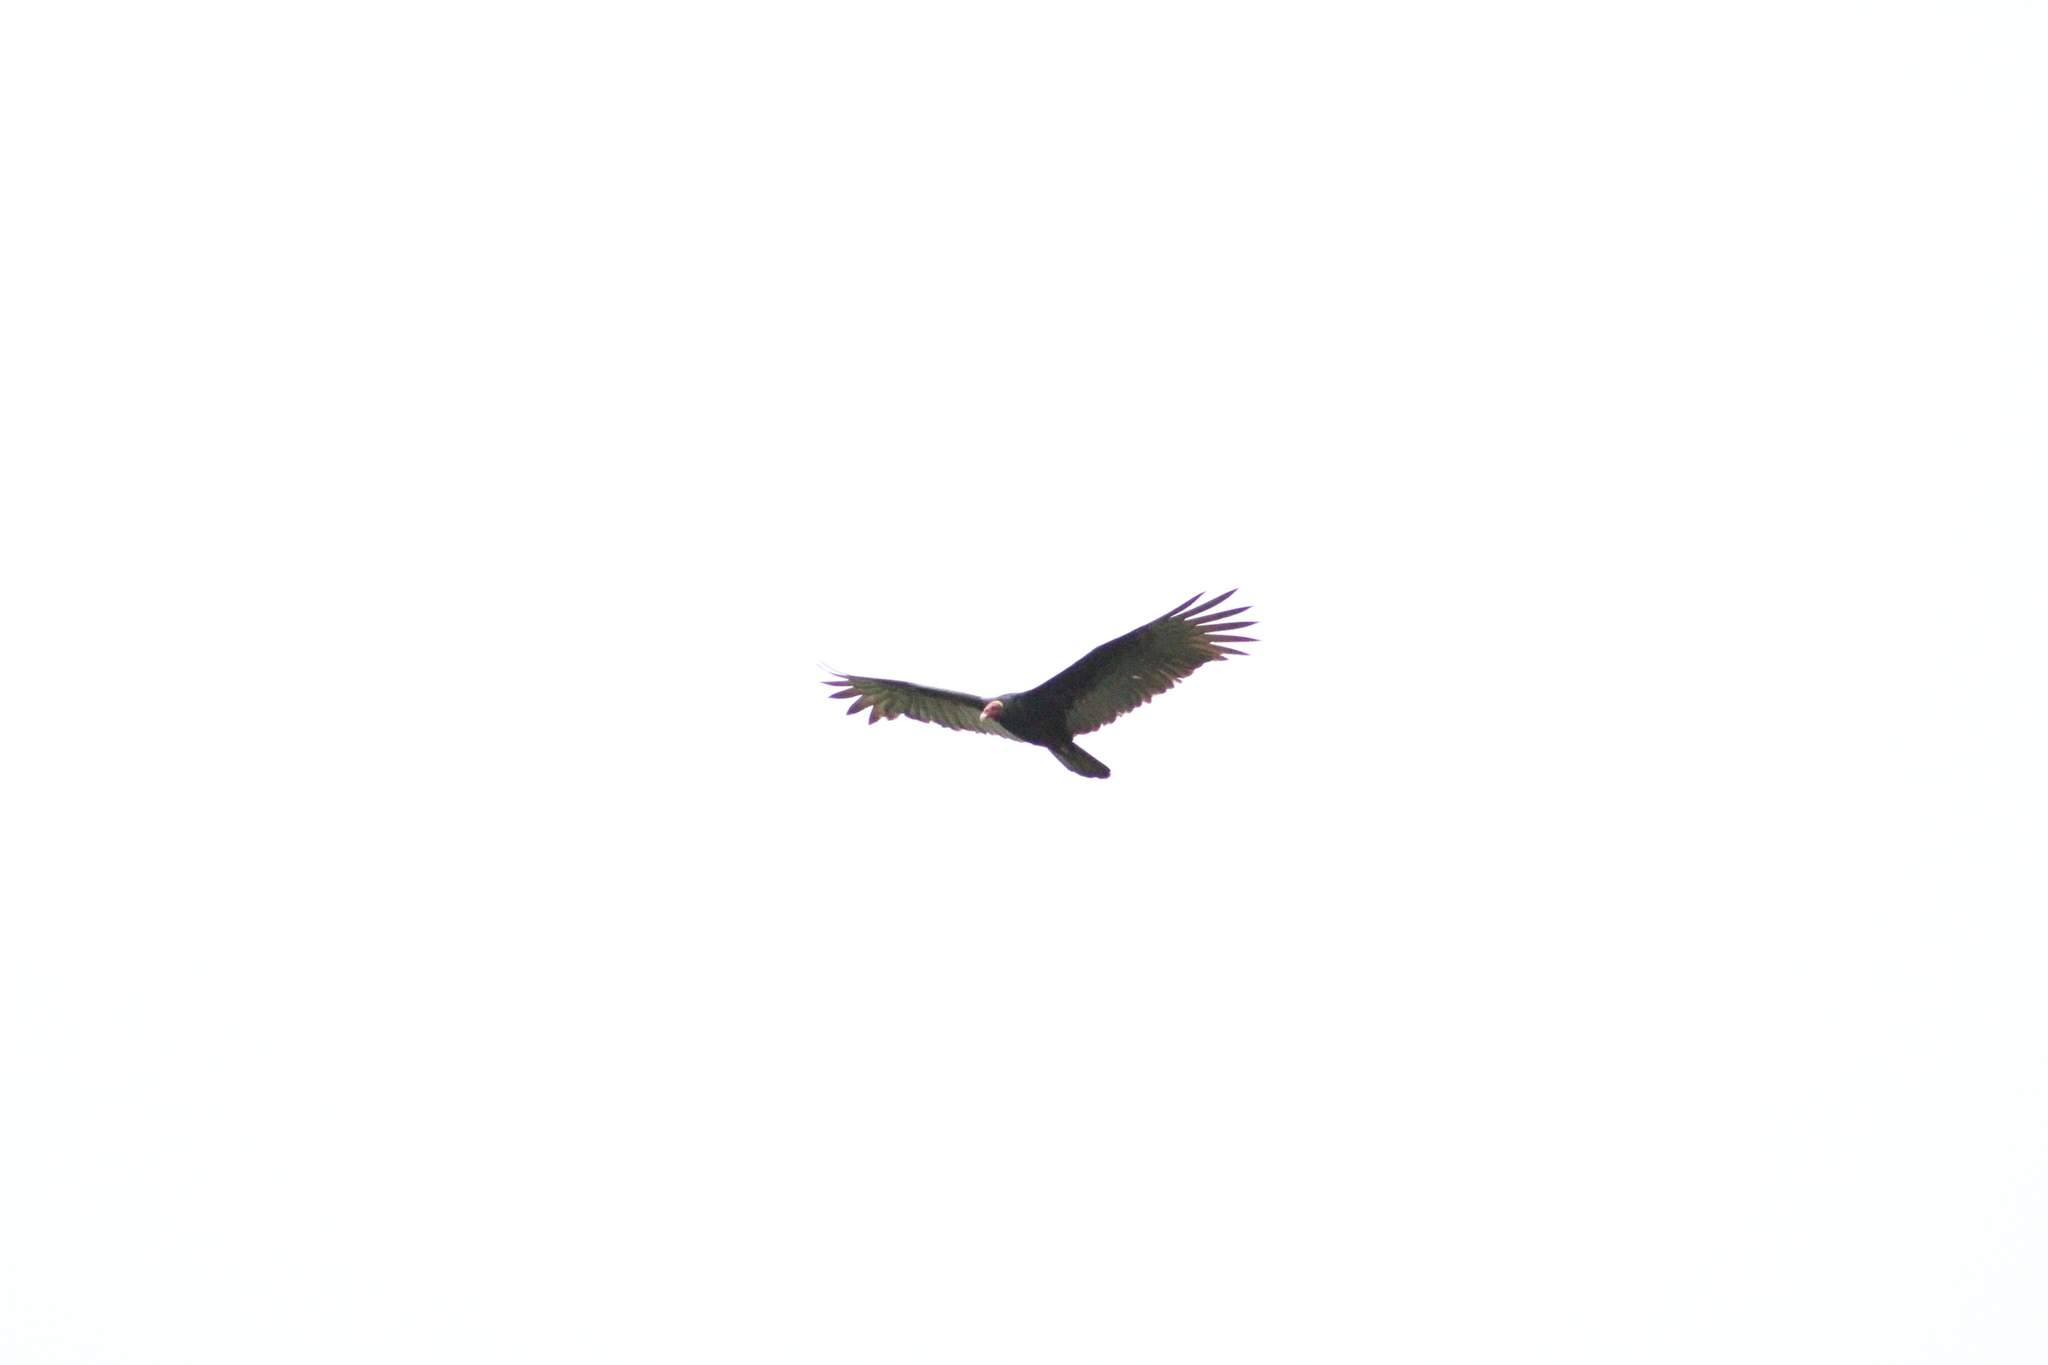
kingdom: Animalia
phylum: Chordata
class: Aves
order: Accipitriformes
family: Cathartidae
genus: Cathartes
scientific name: Cathartes aura
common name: Turkey vulture
